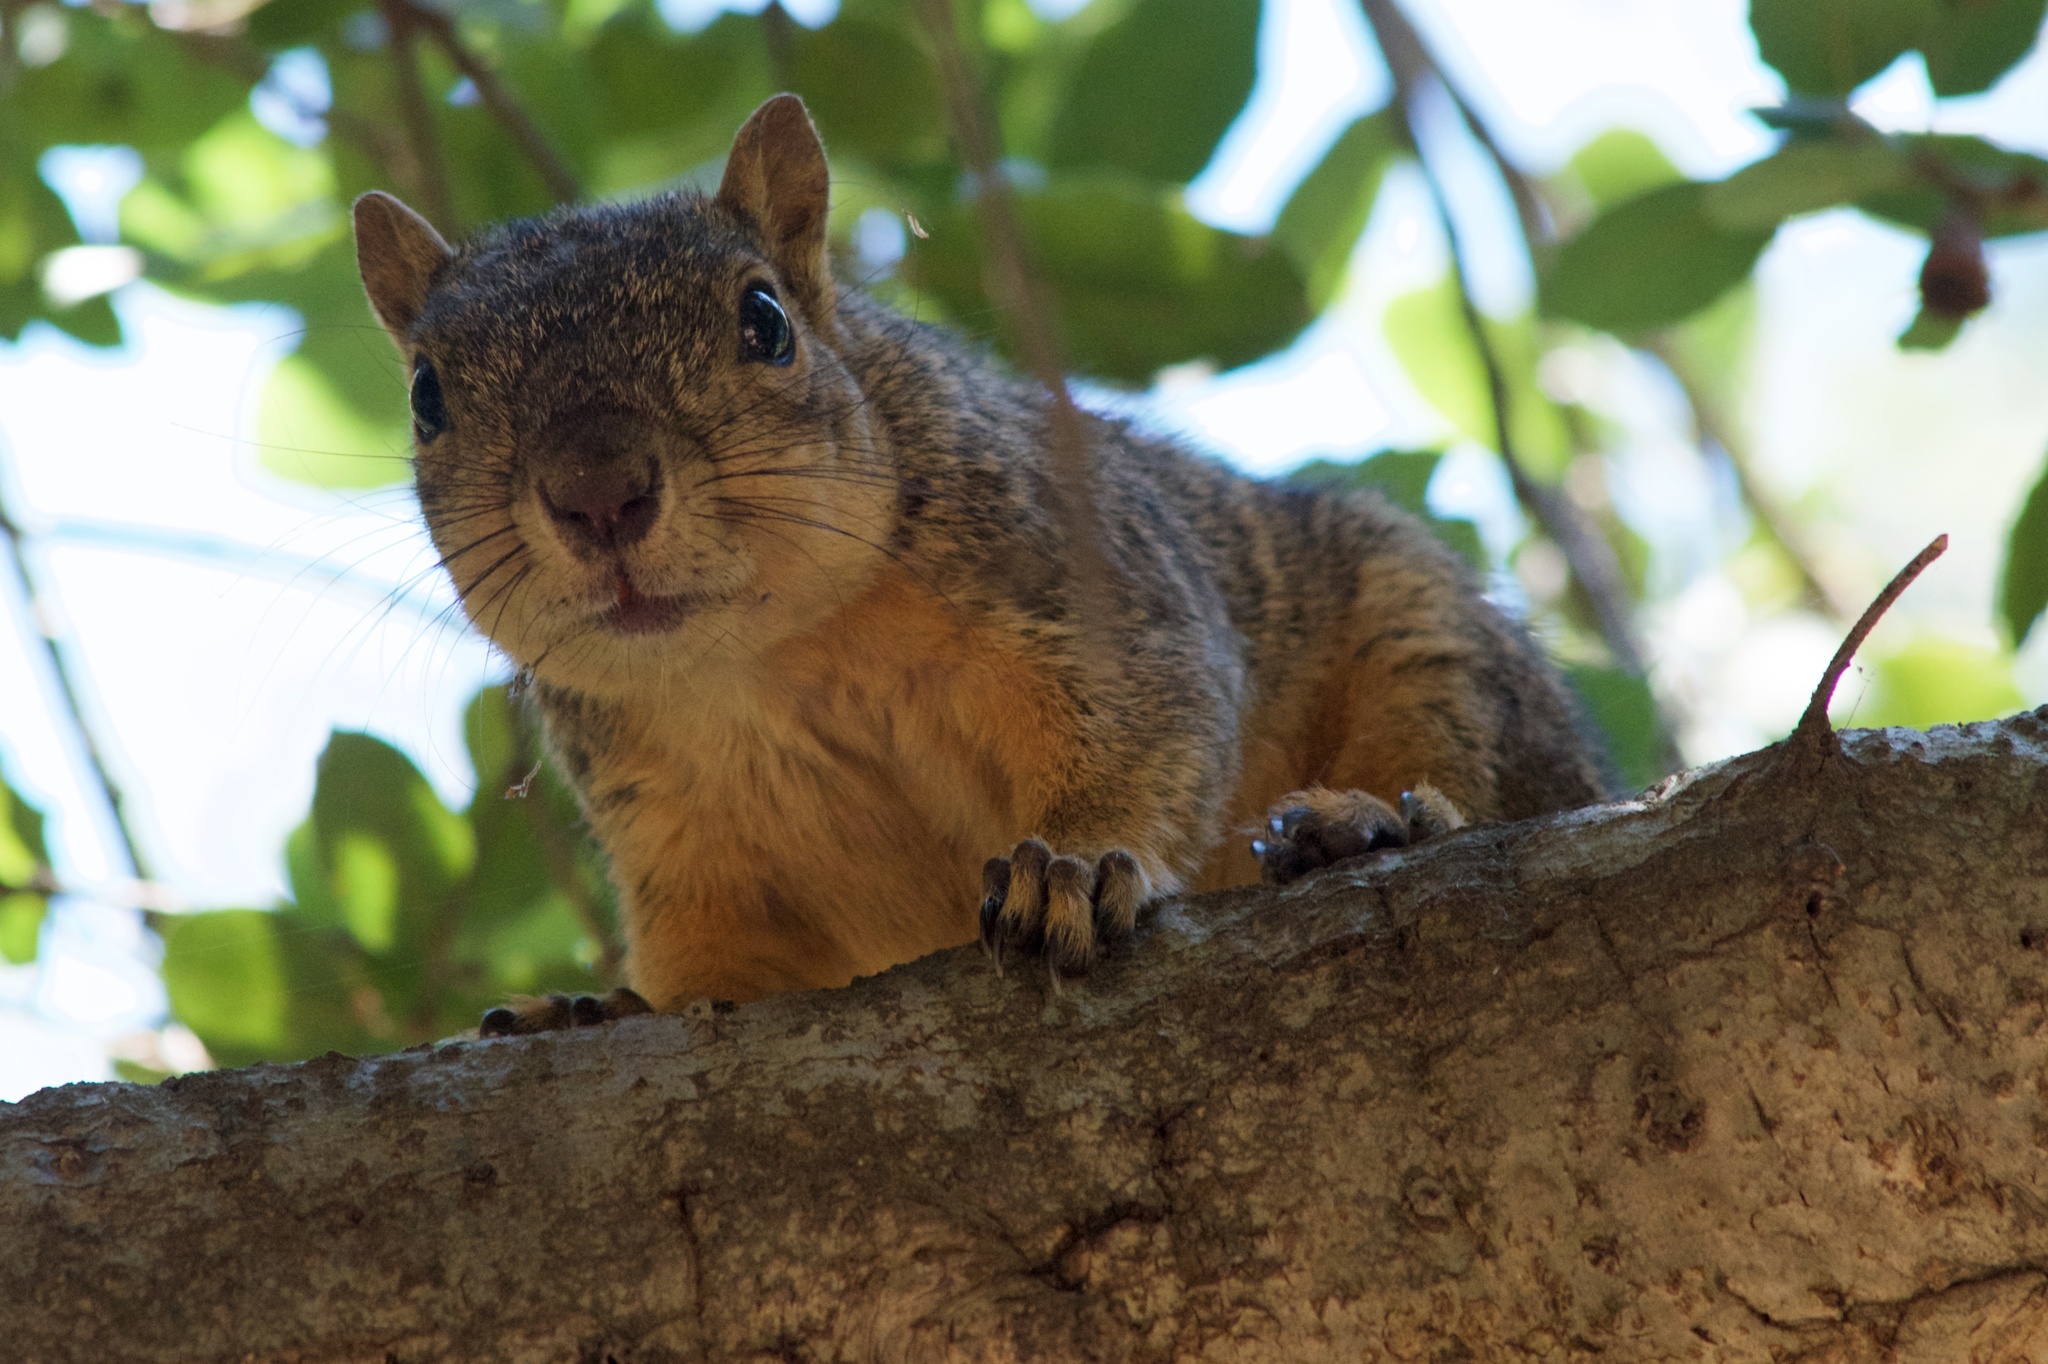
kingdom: Animalia
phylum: Chordata
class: Mammalia
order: Rodentia
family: Sciuridae
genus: Sciurus
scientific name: Sciurus niger
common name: Fox squirrel
